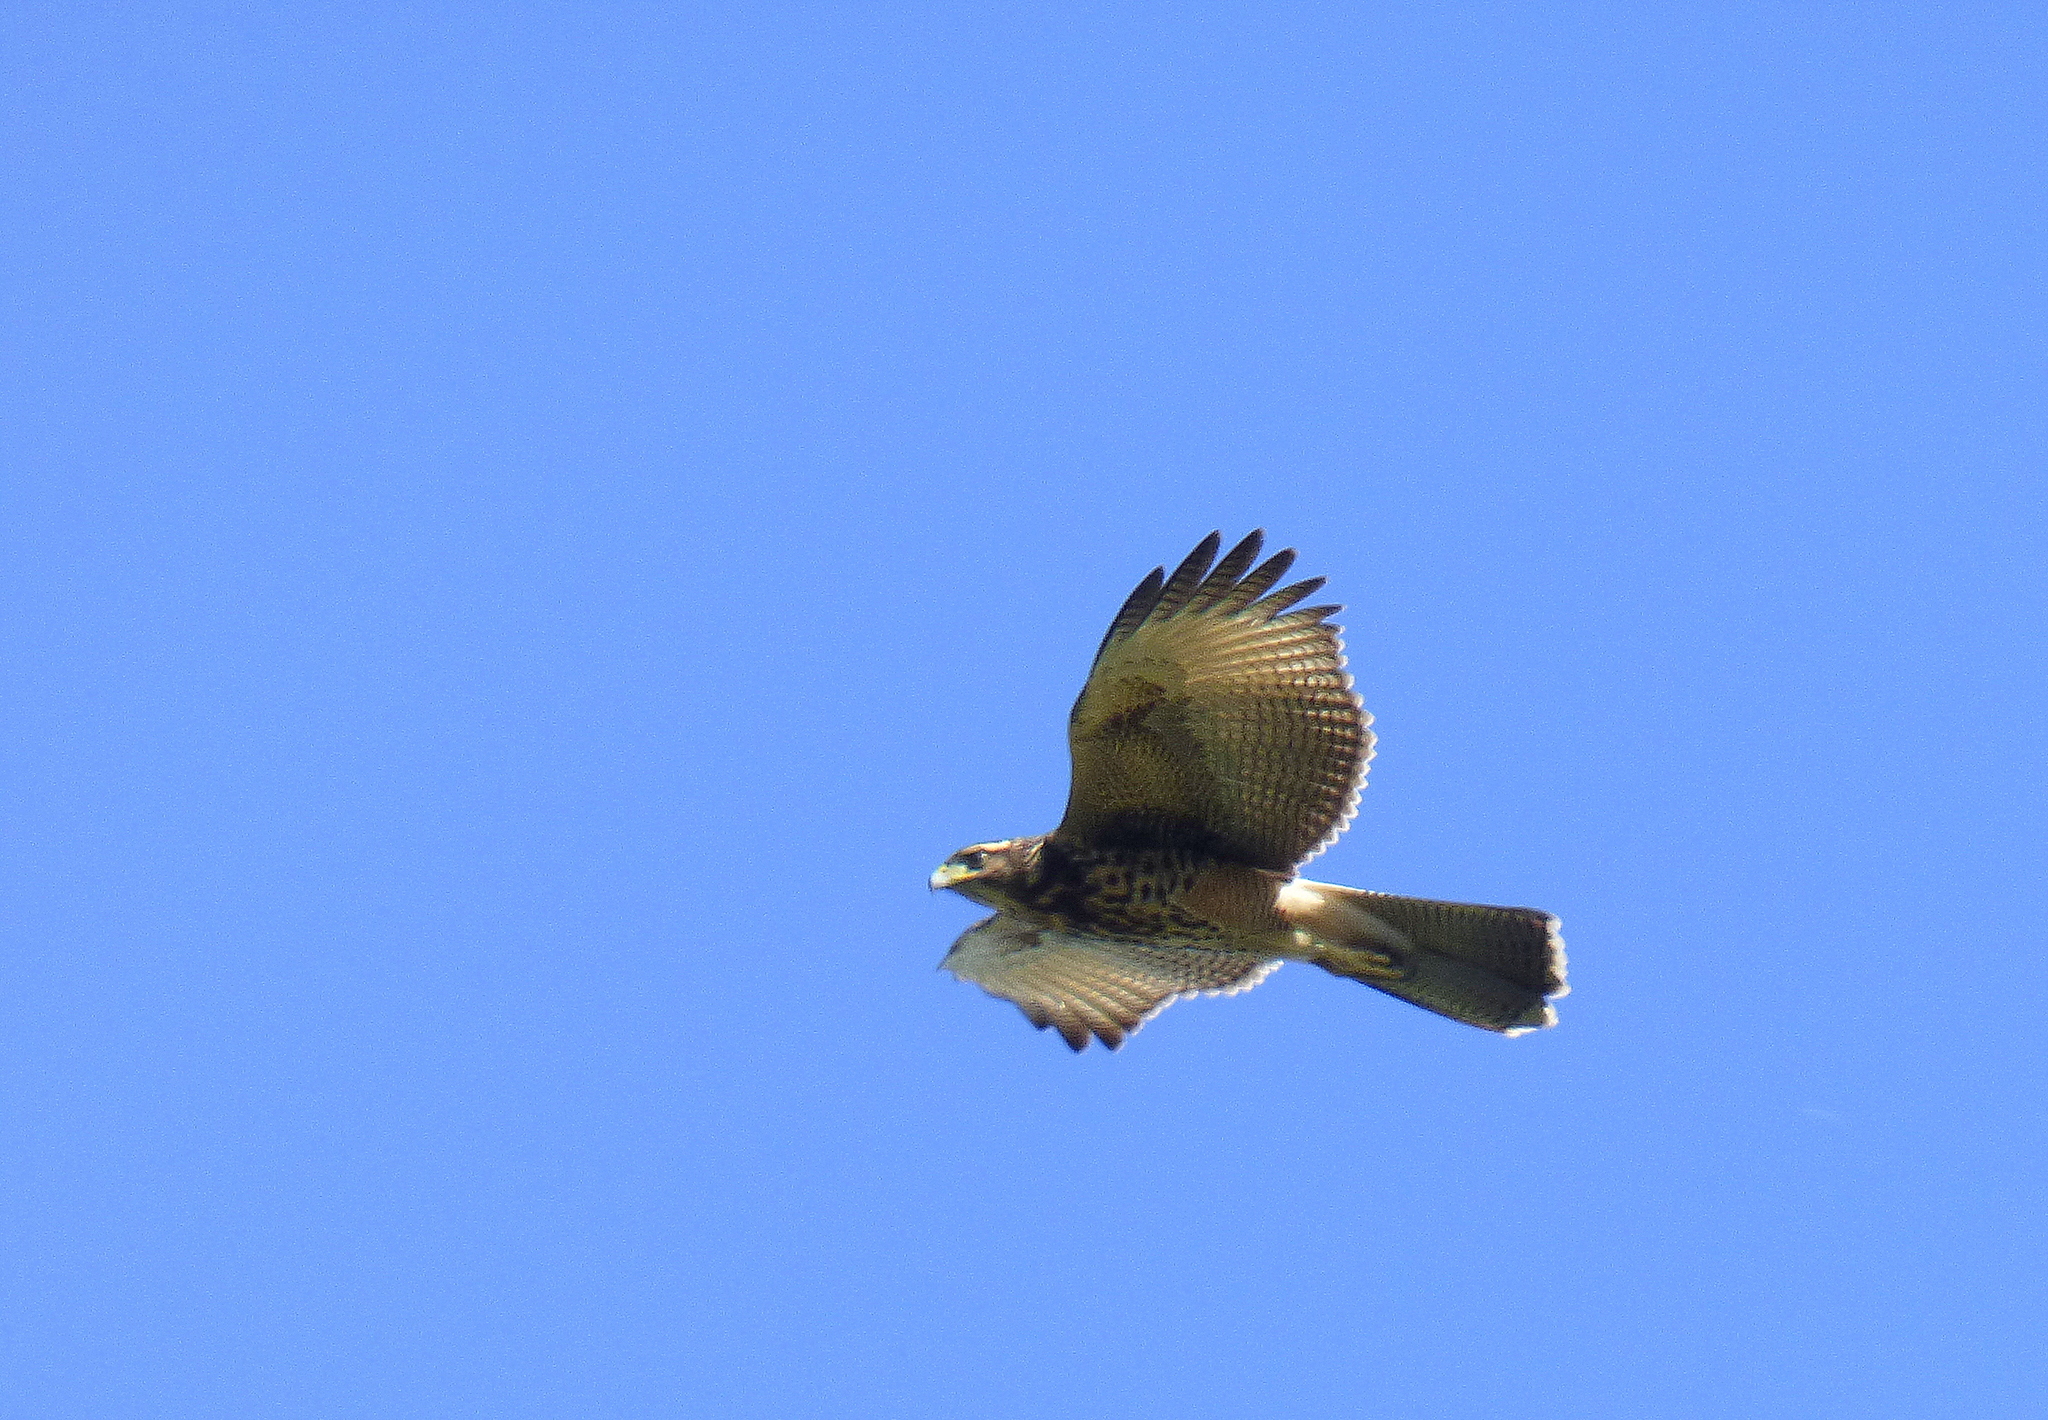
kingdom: Animalia
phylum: Chordata
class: Aves
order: Accipitriformes
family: Accipitridae
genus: Parabuteo
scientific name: Parabuteo unicinctus
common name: Harris's hawk
